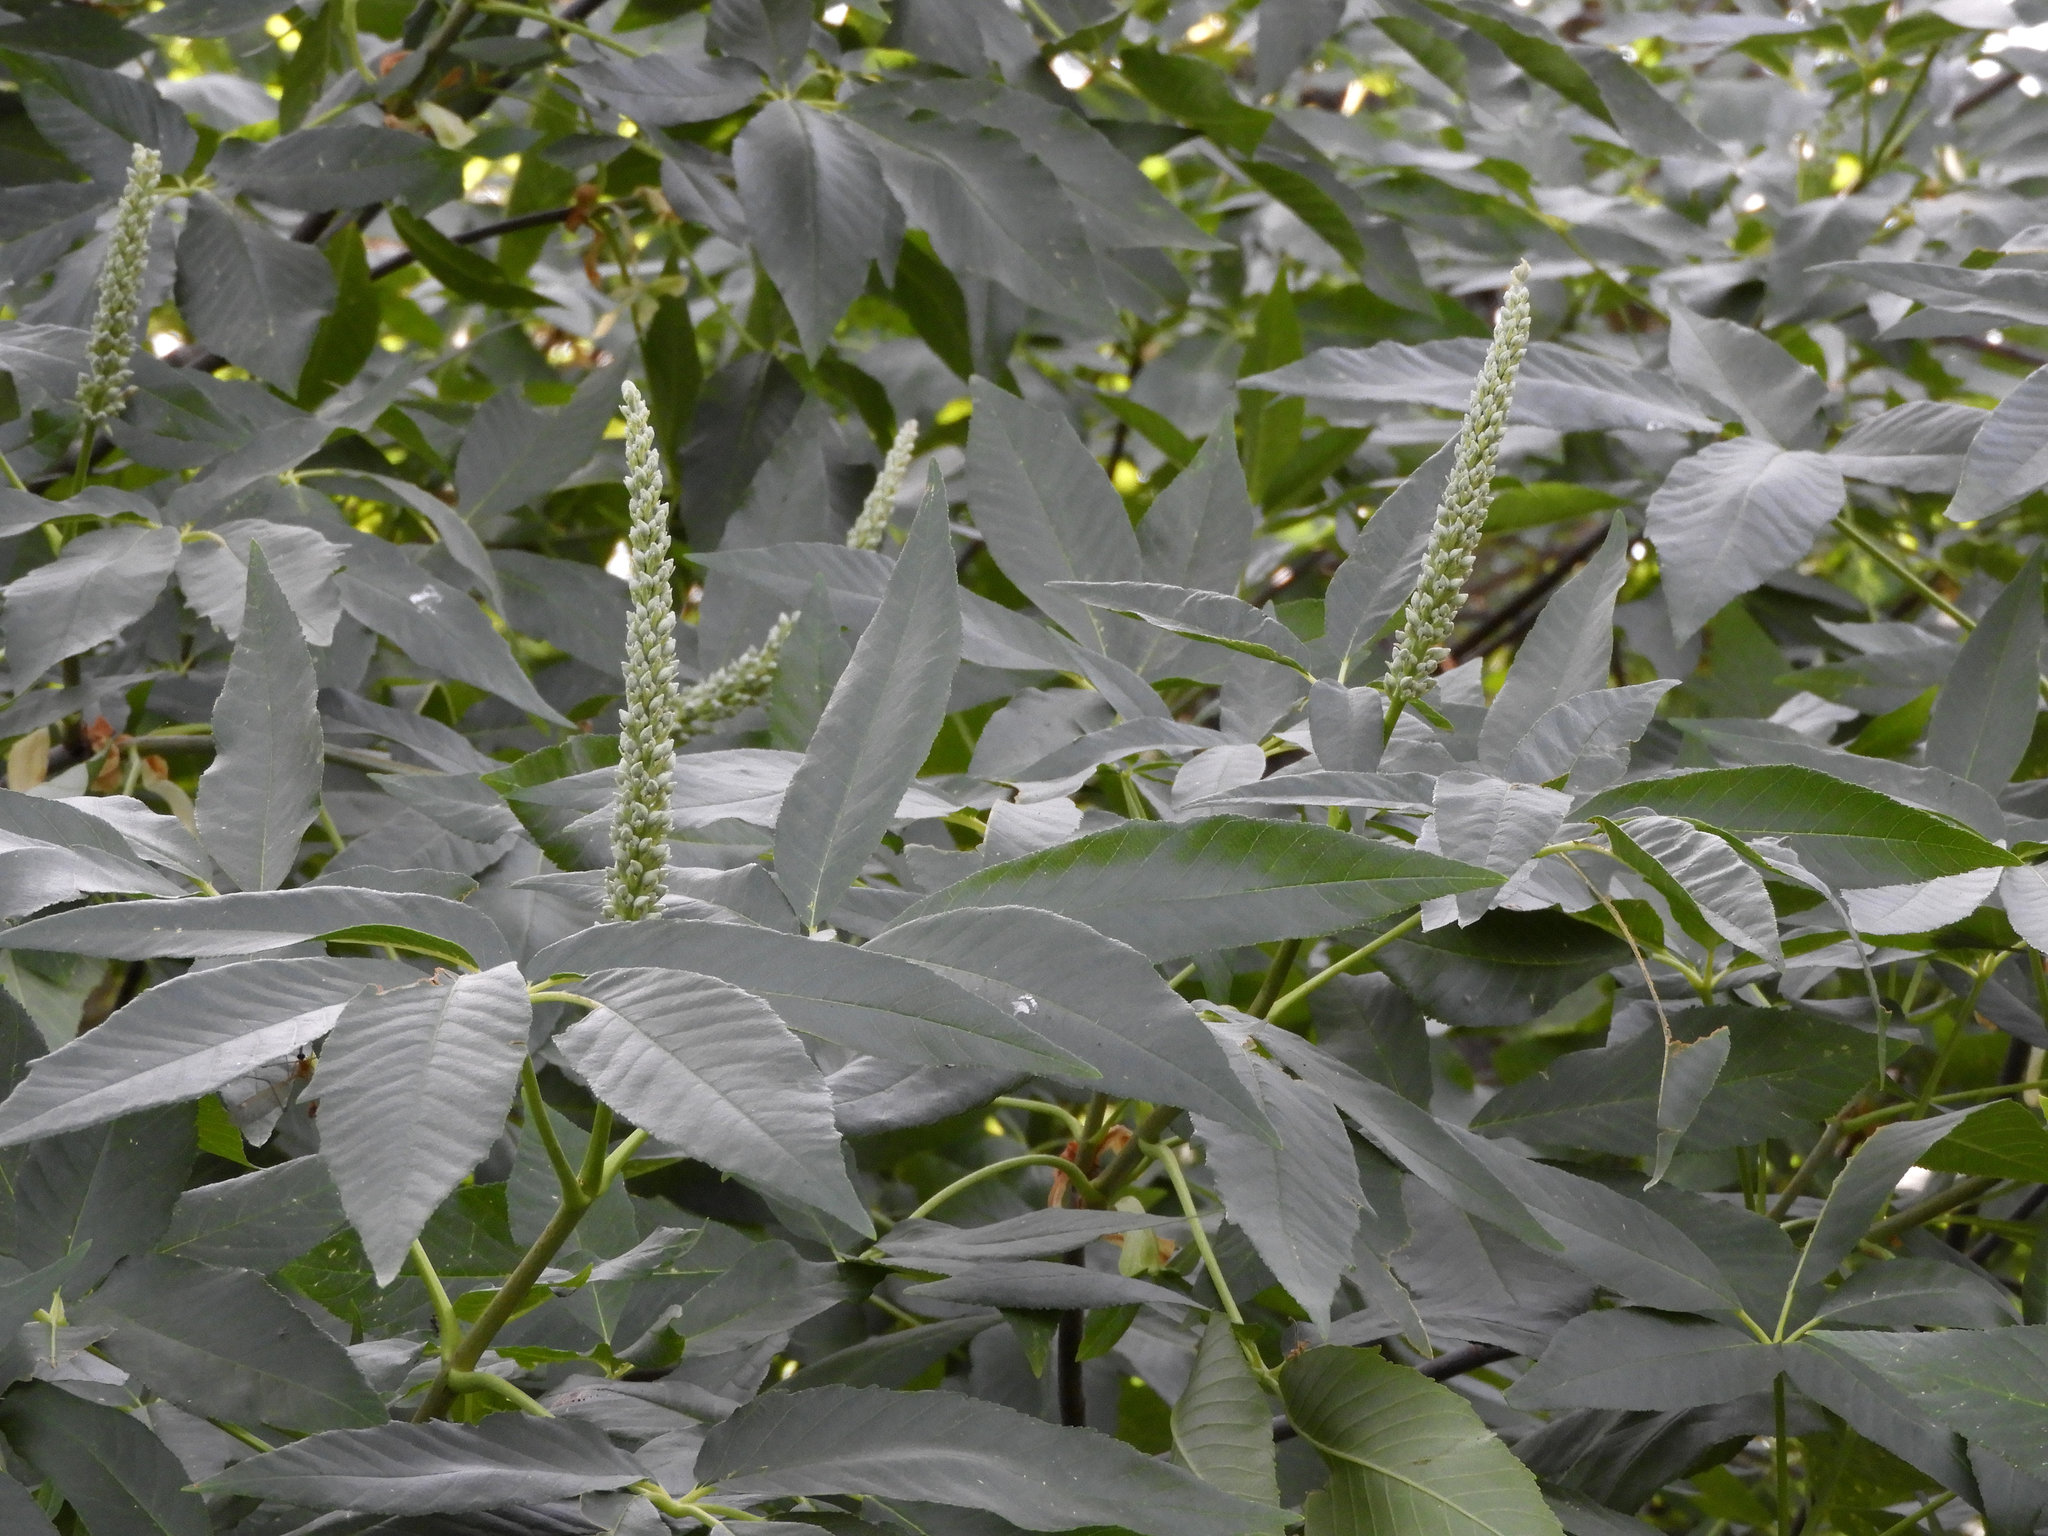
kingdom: Plantae
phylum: Tracheophyta
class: Magnoliopsida
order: Sapindales
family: Sapindaceae
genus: Aesculus
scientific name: Aesculus californica
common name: California buckeye
